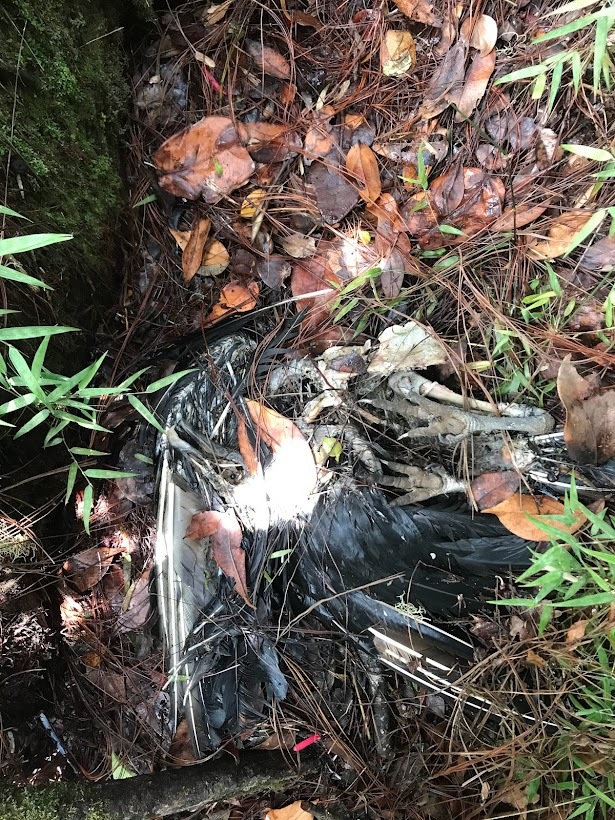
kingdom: Animalia
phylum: Chordata
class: Aves
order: Accipitriformes
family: Cathartidae
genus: Coragyps
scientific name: Coragyps atratus
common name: Black vulture
